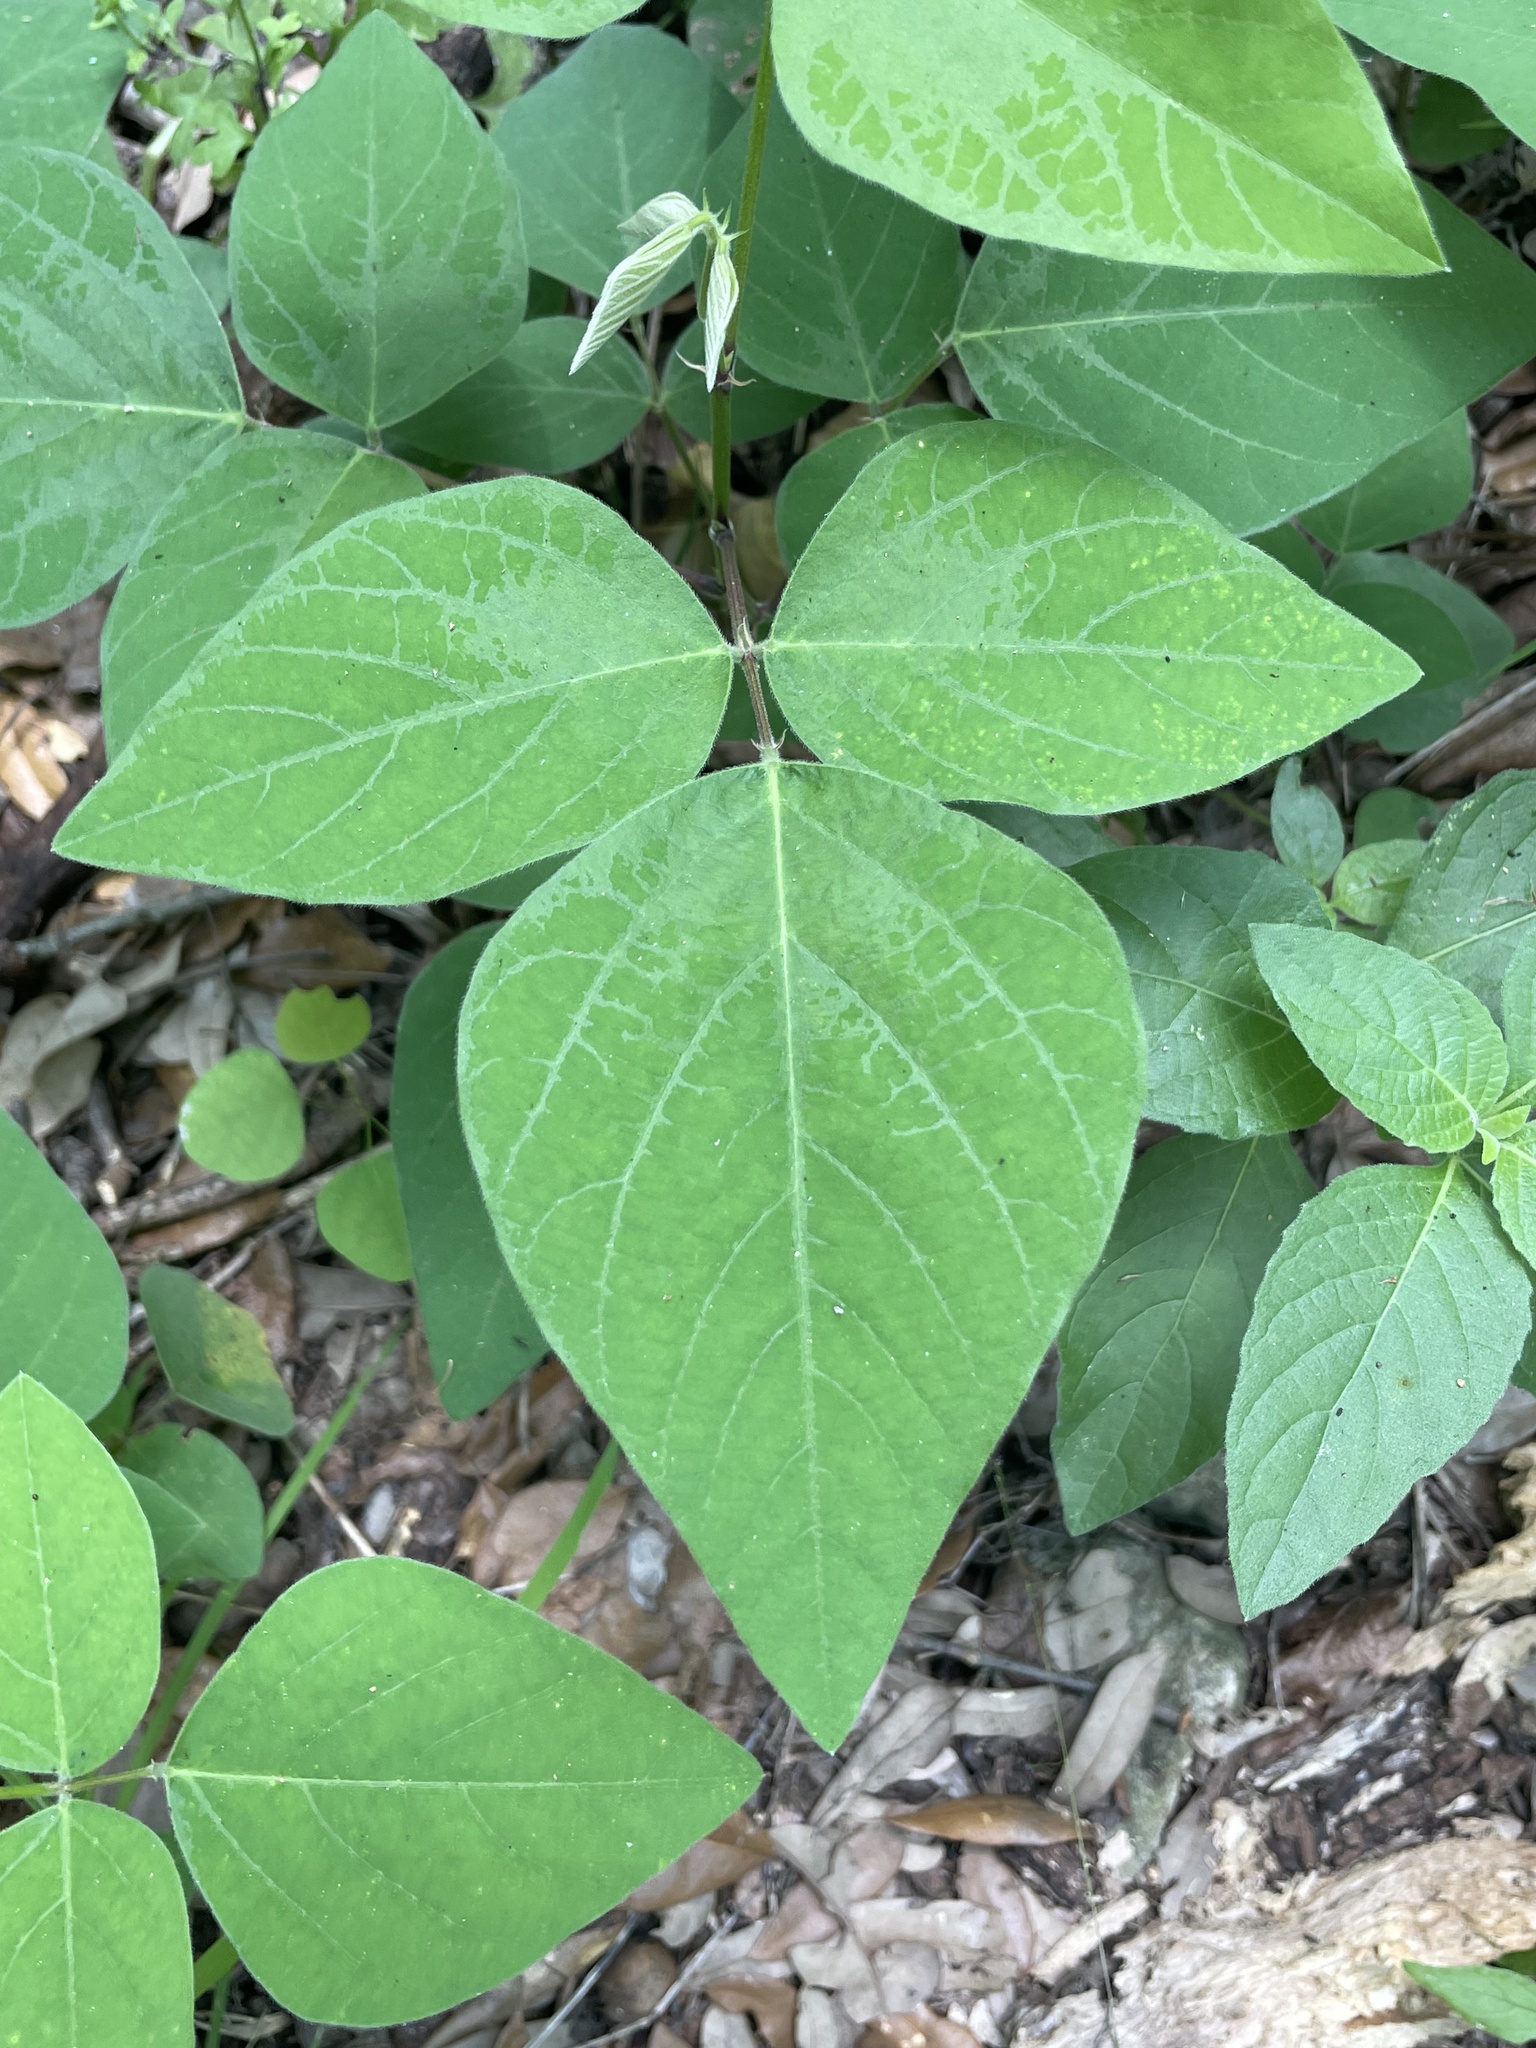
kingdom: Plantae
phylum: Tracheophyta
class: Magnoliopsida
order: Fabales
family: Fabaceae
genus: Desmodium
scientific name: Desmodium lindheimeri
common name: Lindheimer's tick-trefoil
